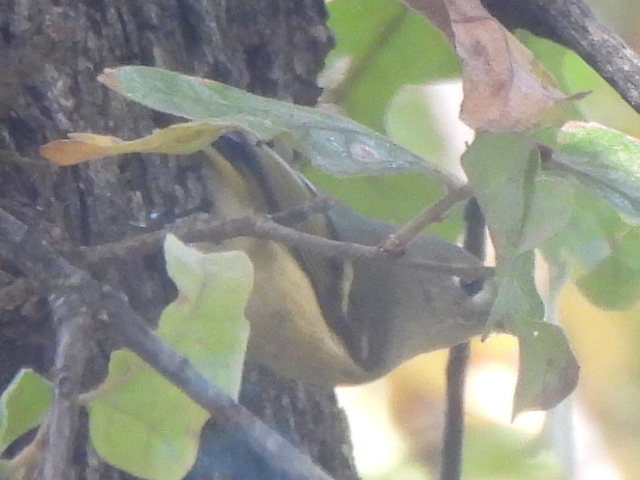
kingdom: Animalia
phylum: Chordata
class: Aves
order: Passeriformes
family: Regulidae
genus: Regulus
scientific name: Regulus calendula
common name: Ruby-crowned kinglet
